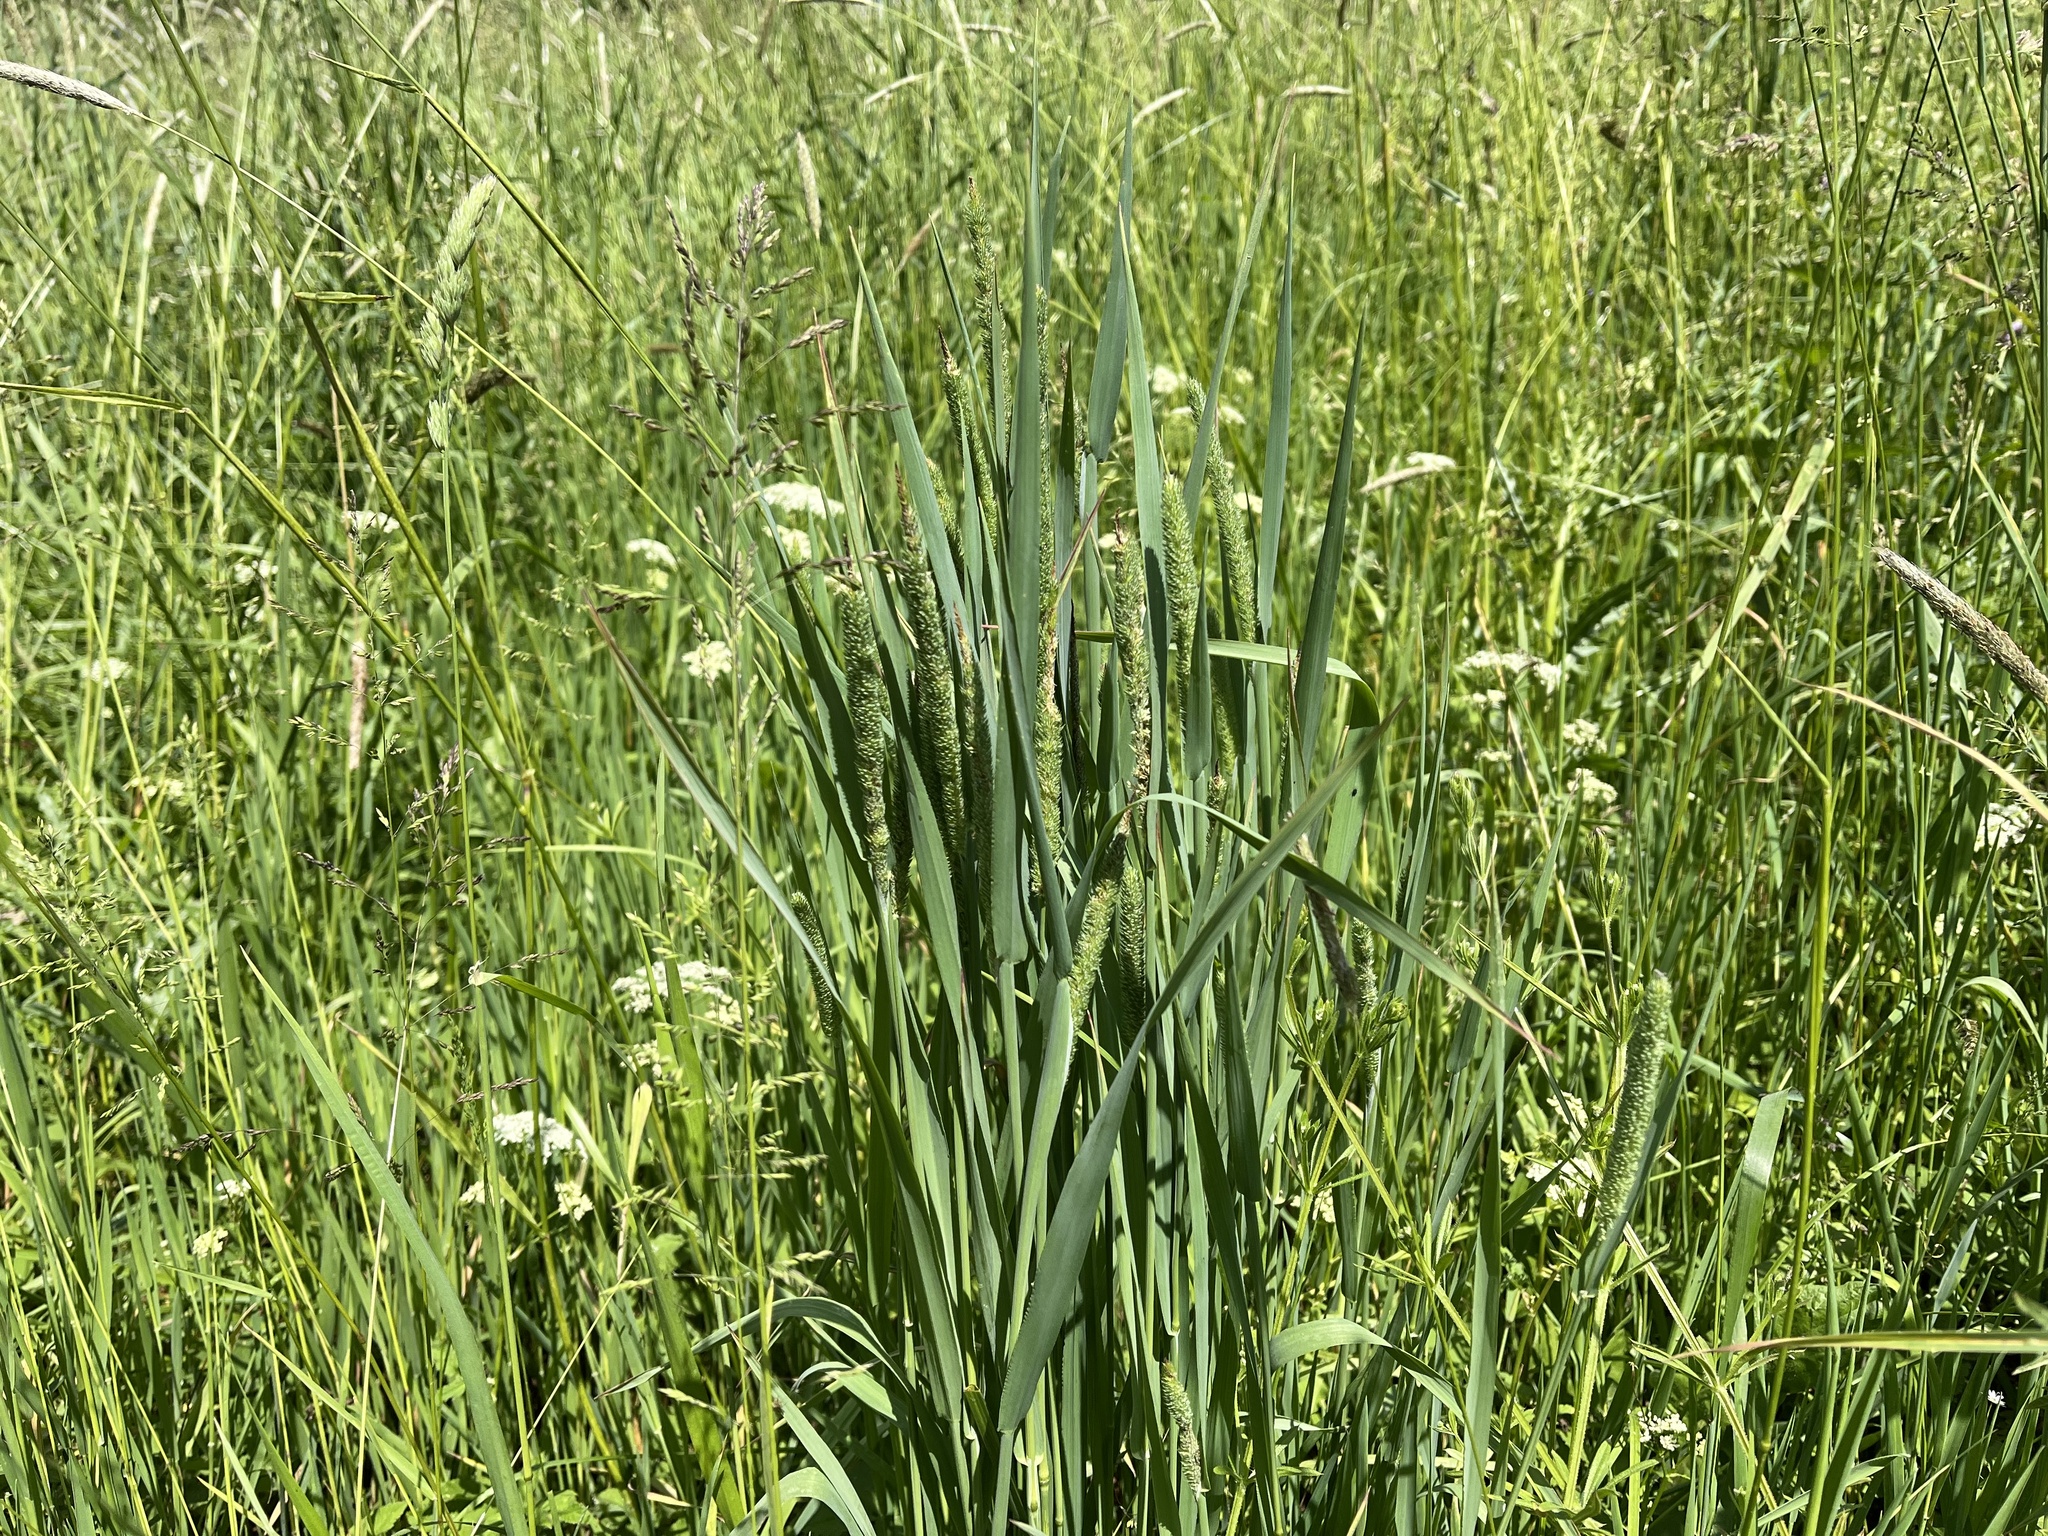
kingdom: Plantae
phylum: Tracheophyta
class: Liliopsida
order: Poales
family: Poaceae
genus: Phleum
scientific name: Phleum pratense
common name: Timothy grass
